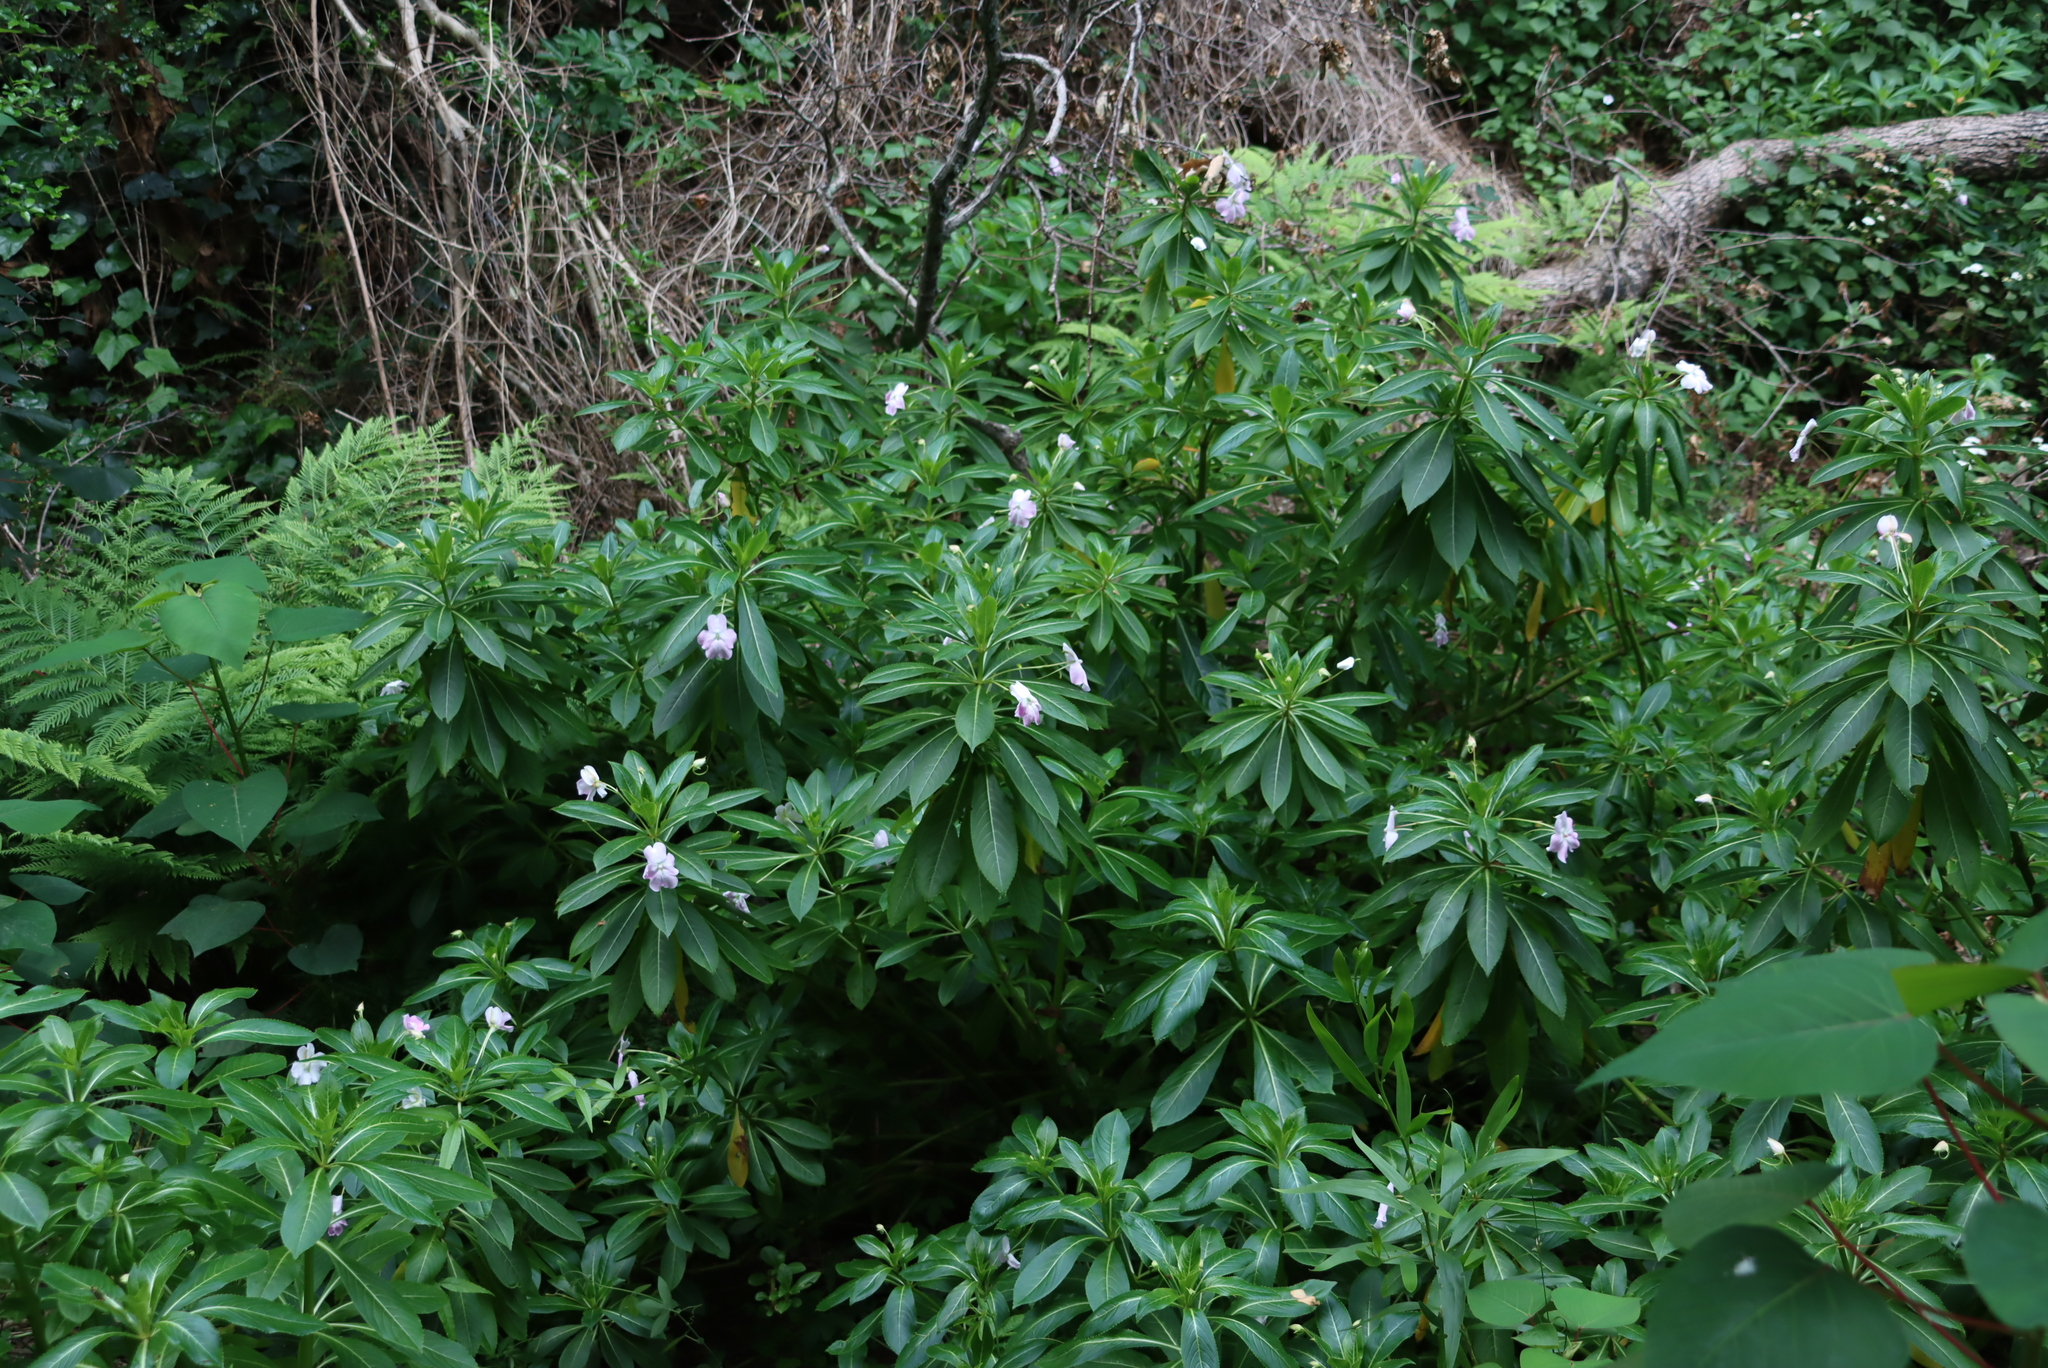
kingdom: Plantae
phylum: Tracheophyta
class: Magnoliopsida
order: Ericales
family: Balsaminaceae
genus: Impatiens
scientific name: Impatiens sodenii
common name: Oliver's touch-me-not
